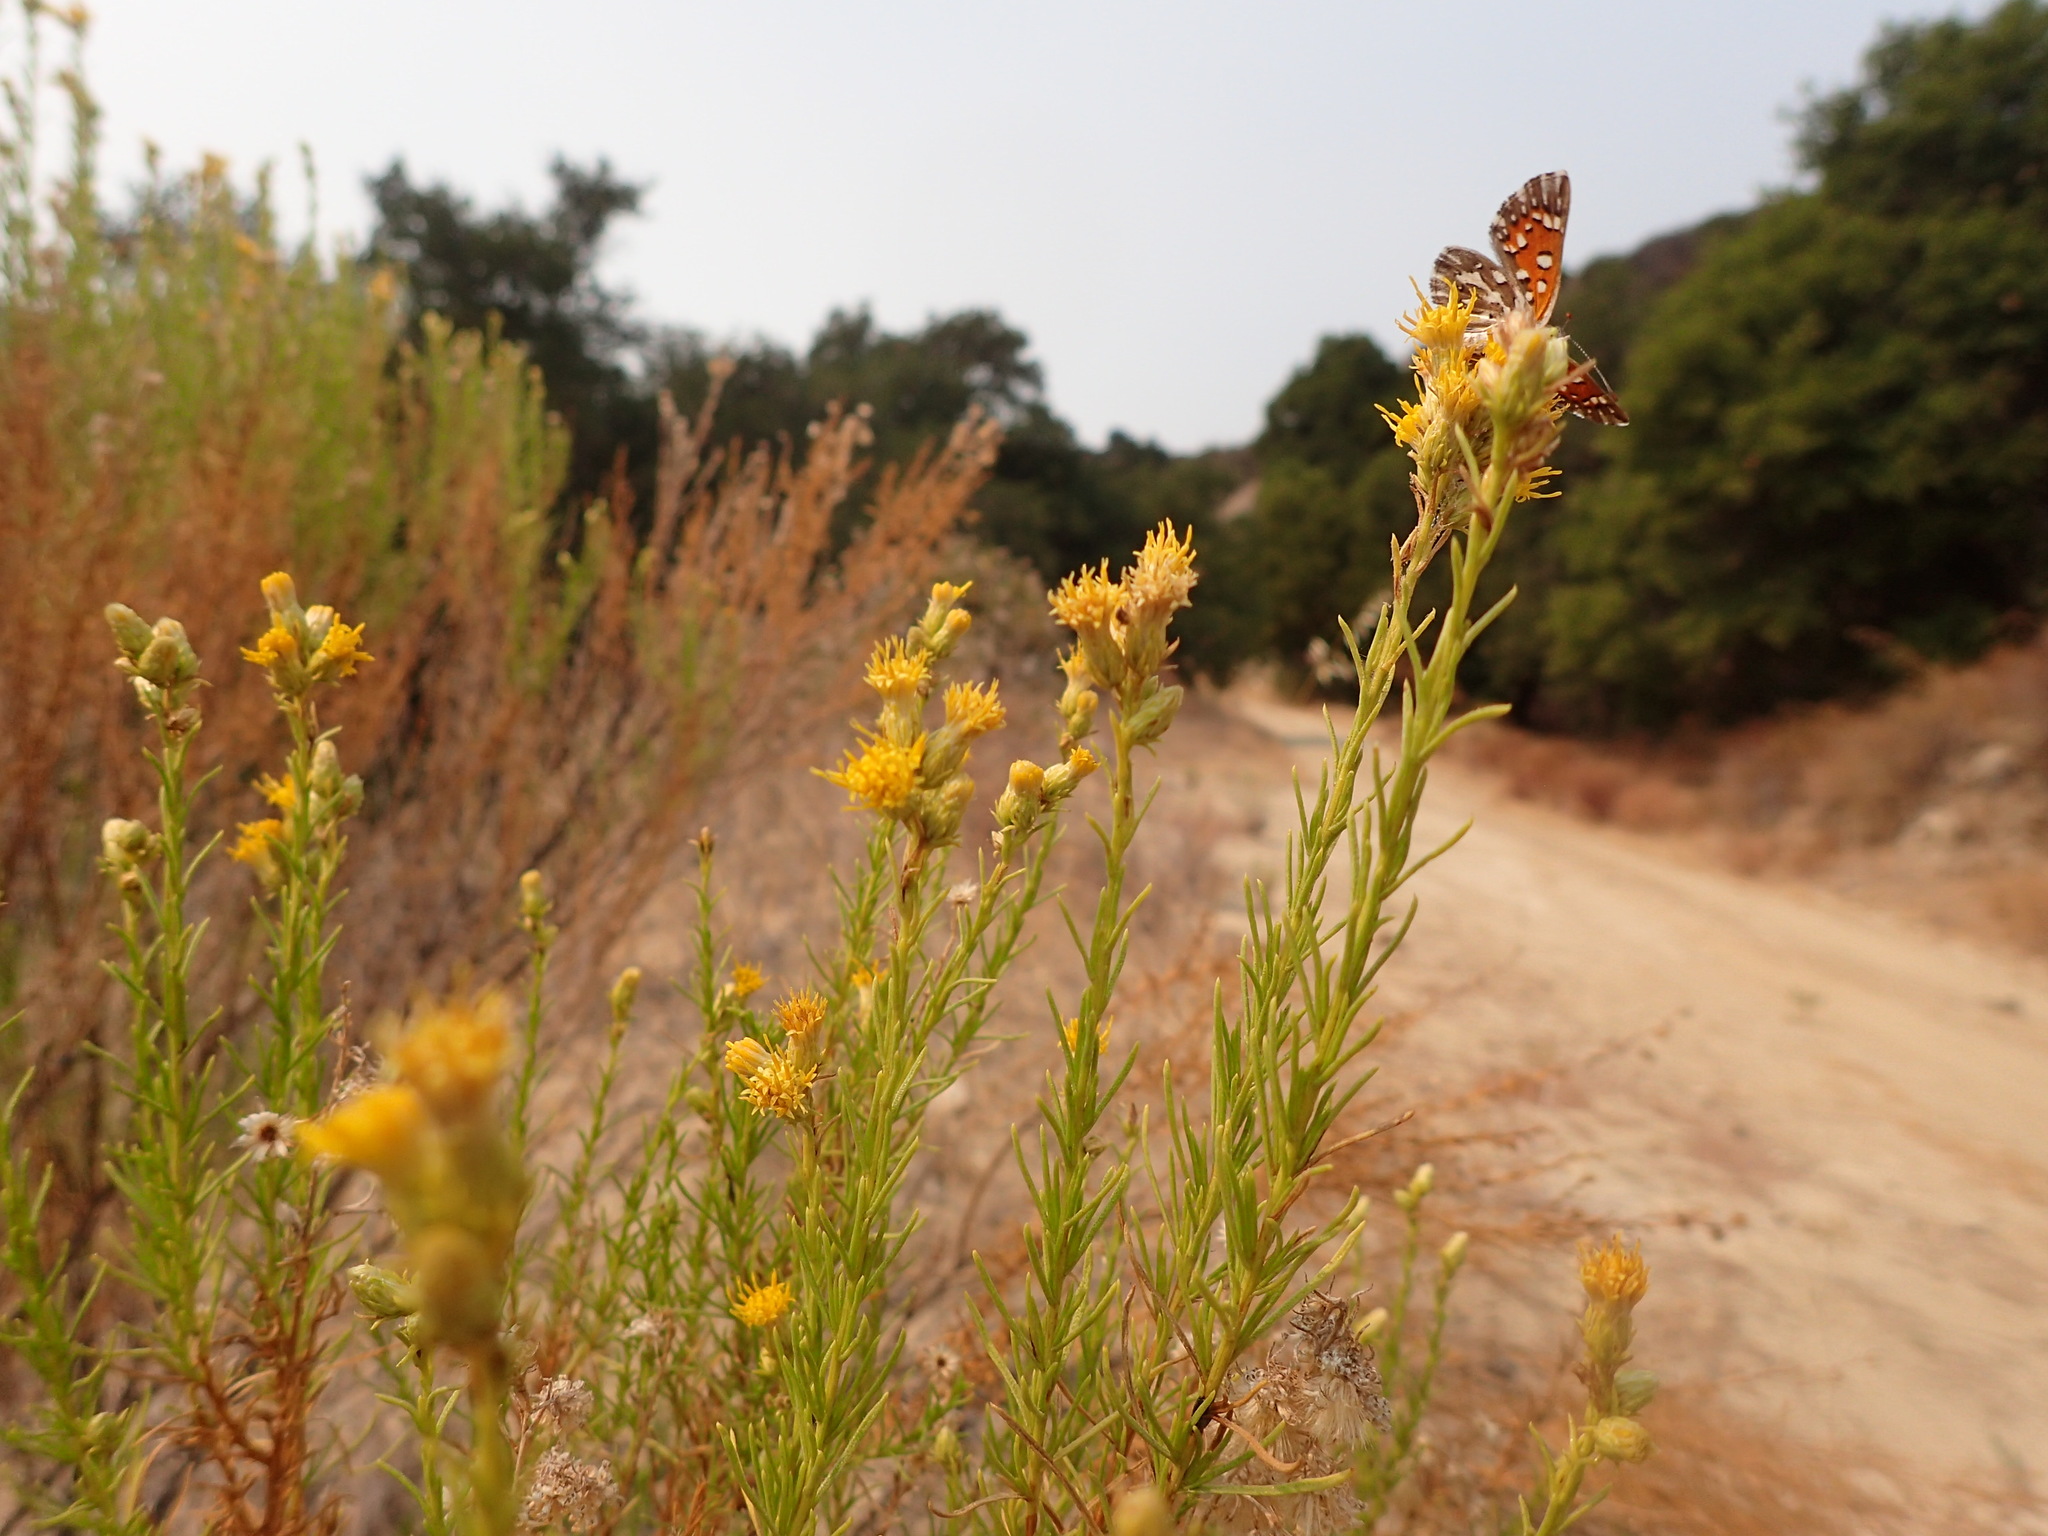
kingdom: Animalia
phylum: Arthropoda
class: Insecta
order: Lepidoptera
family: Riodinidae
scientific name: Riodinidae
